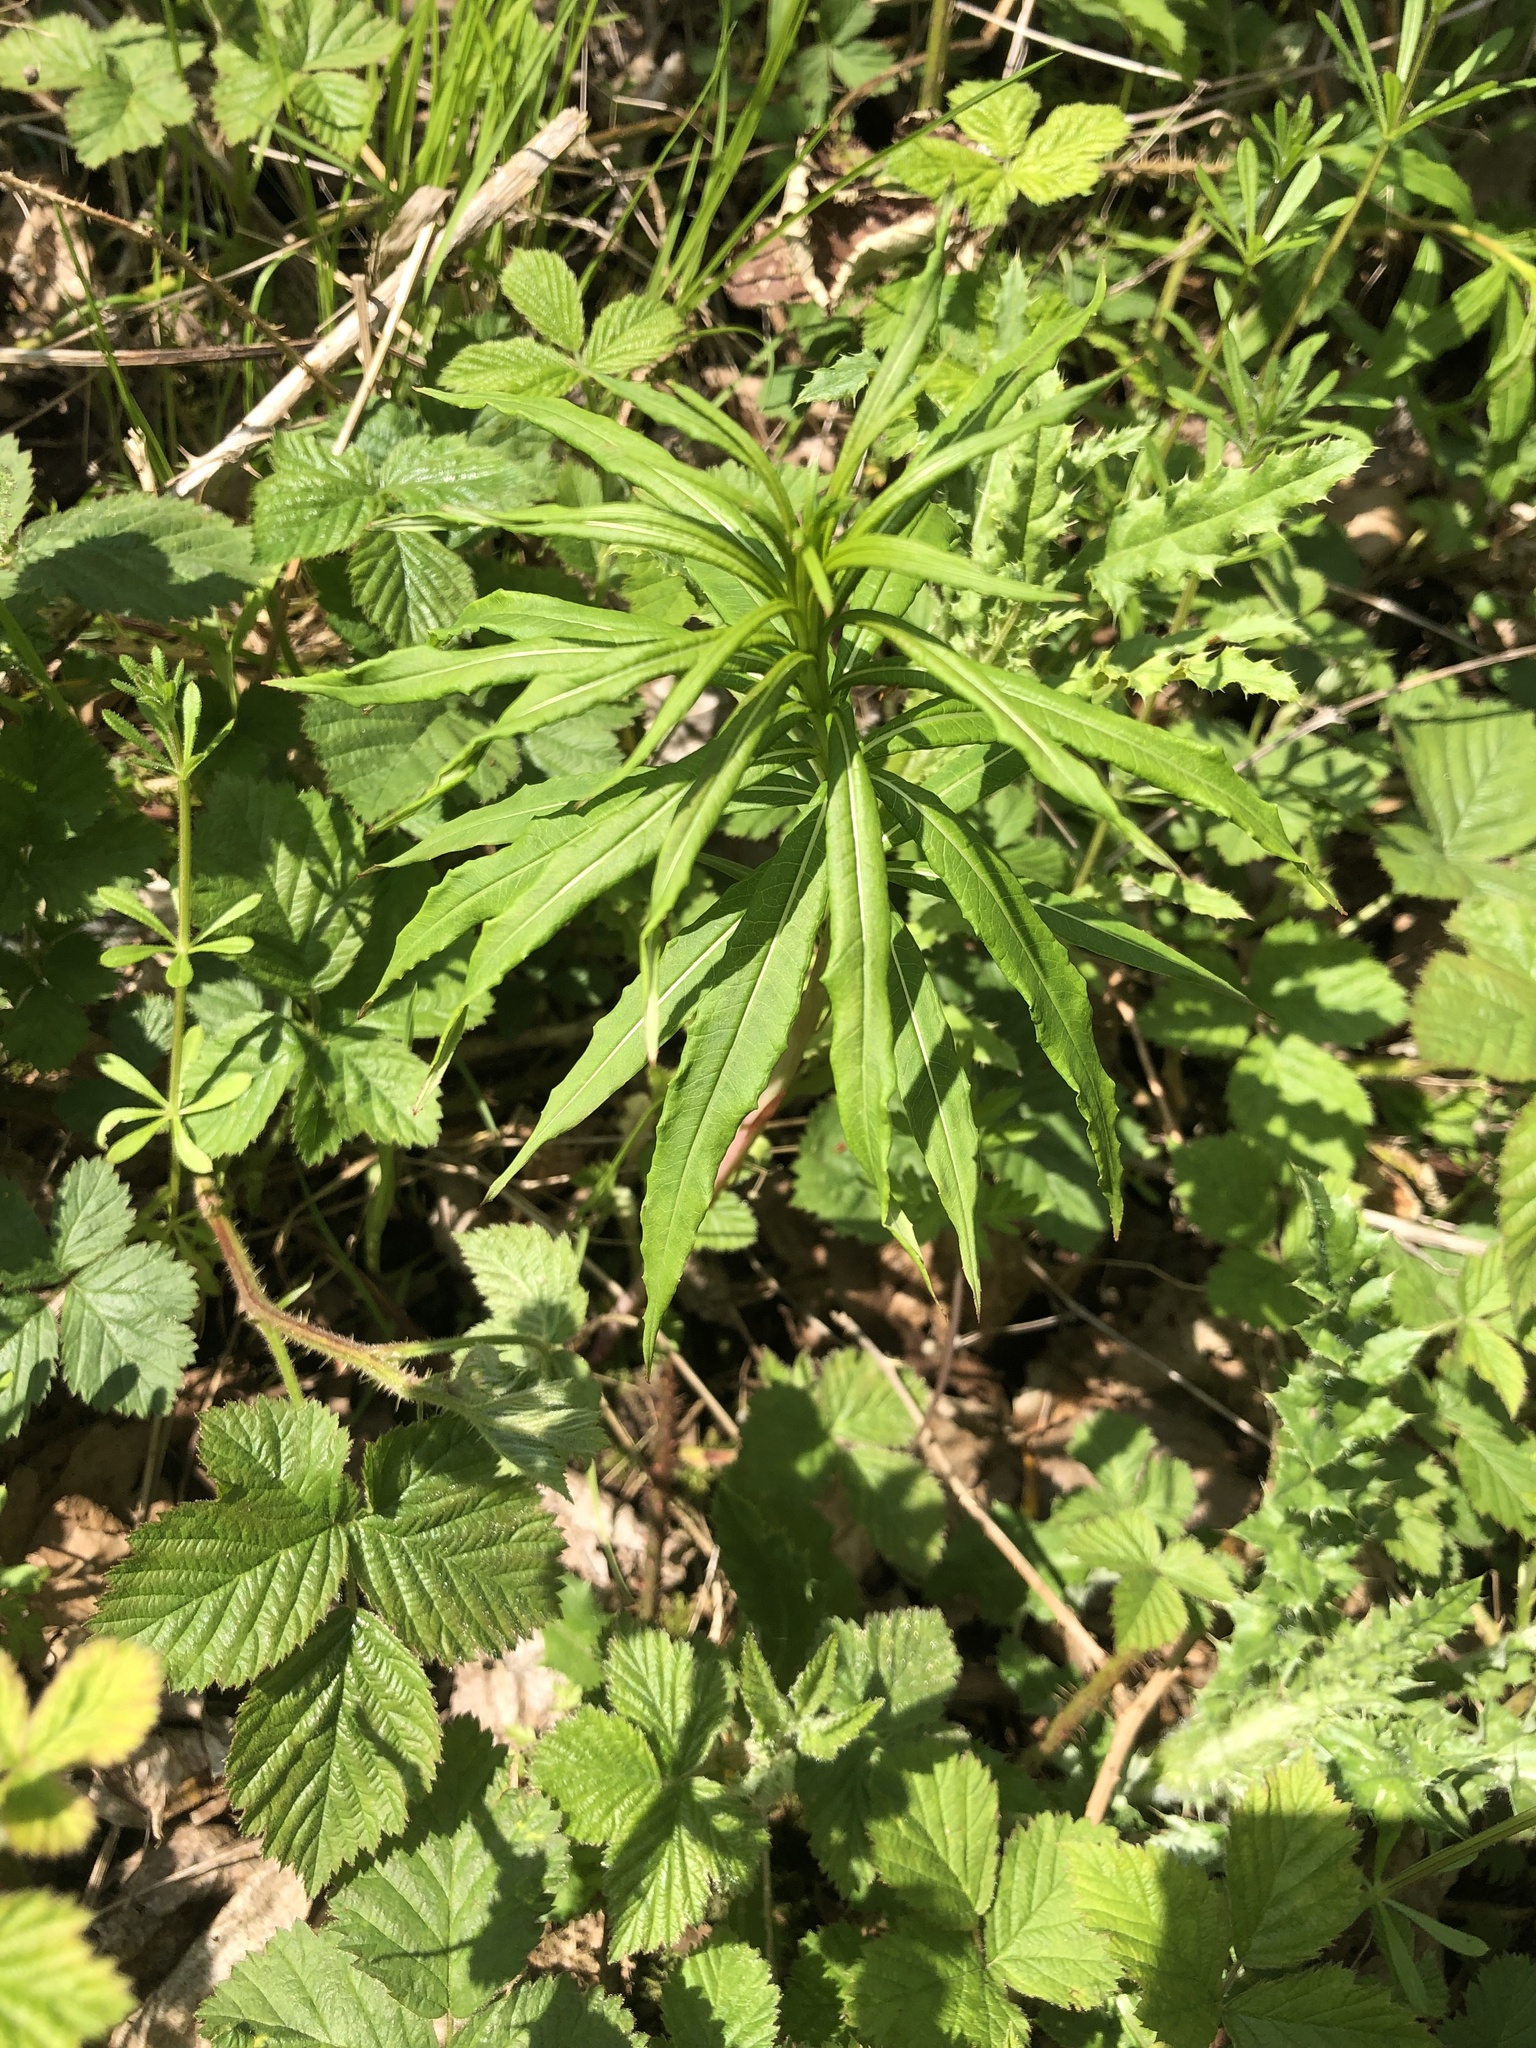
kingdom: Plantae
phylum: Tracheophyta
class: Magnoliopsida
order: Myrtales
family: Onagraceae
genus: Chamaenerion
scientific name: Chamaenerion angustifolium
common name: Fireweed
